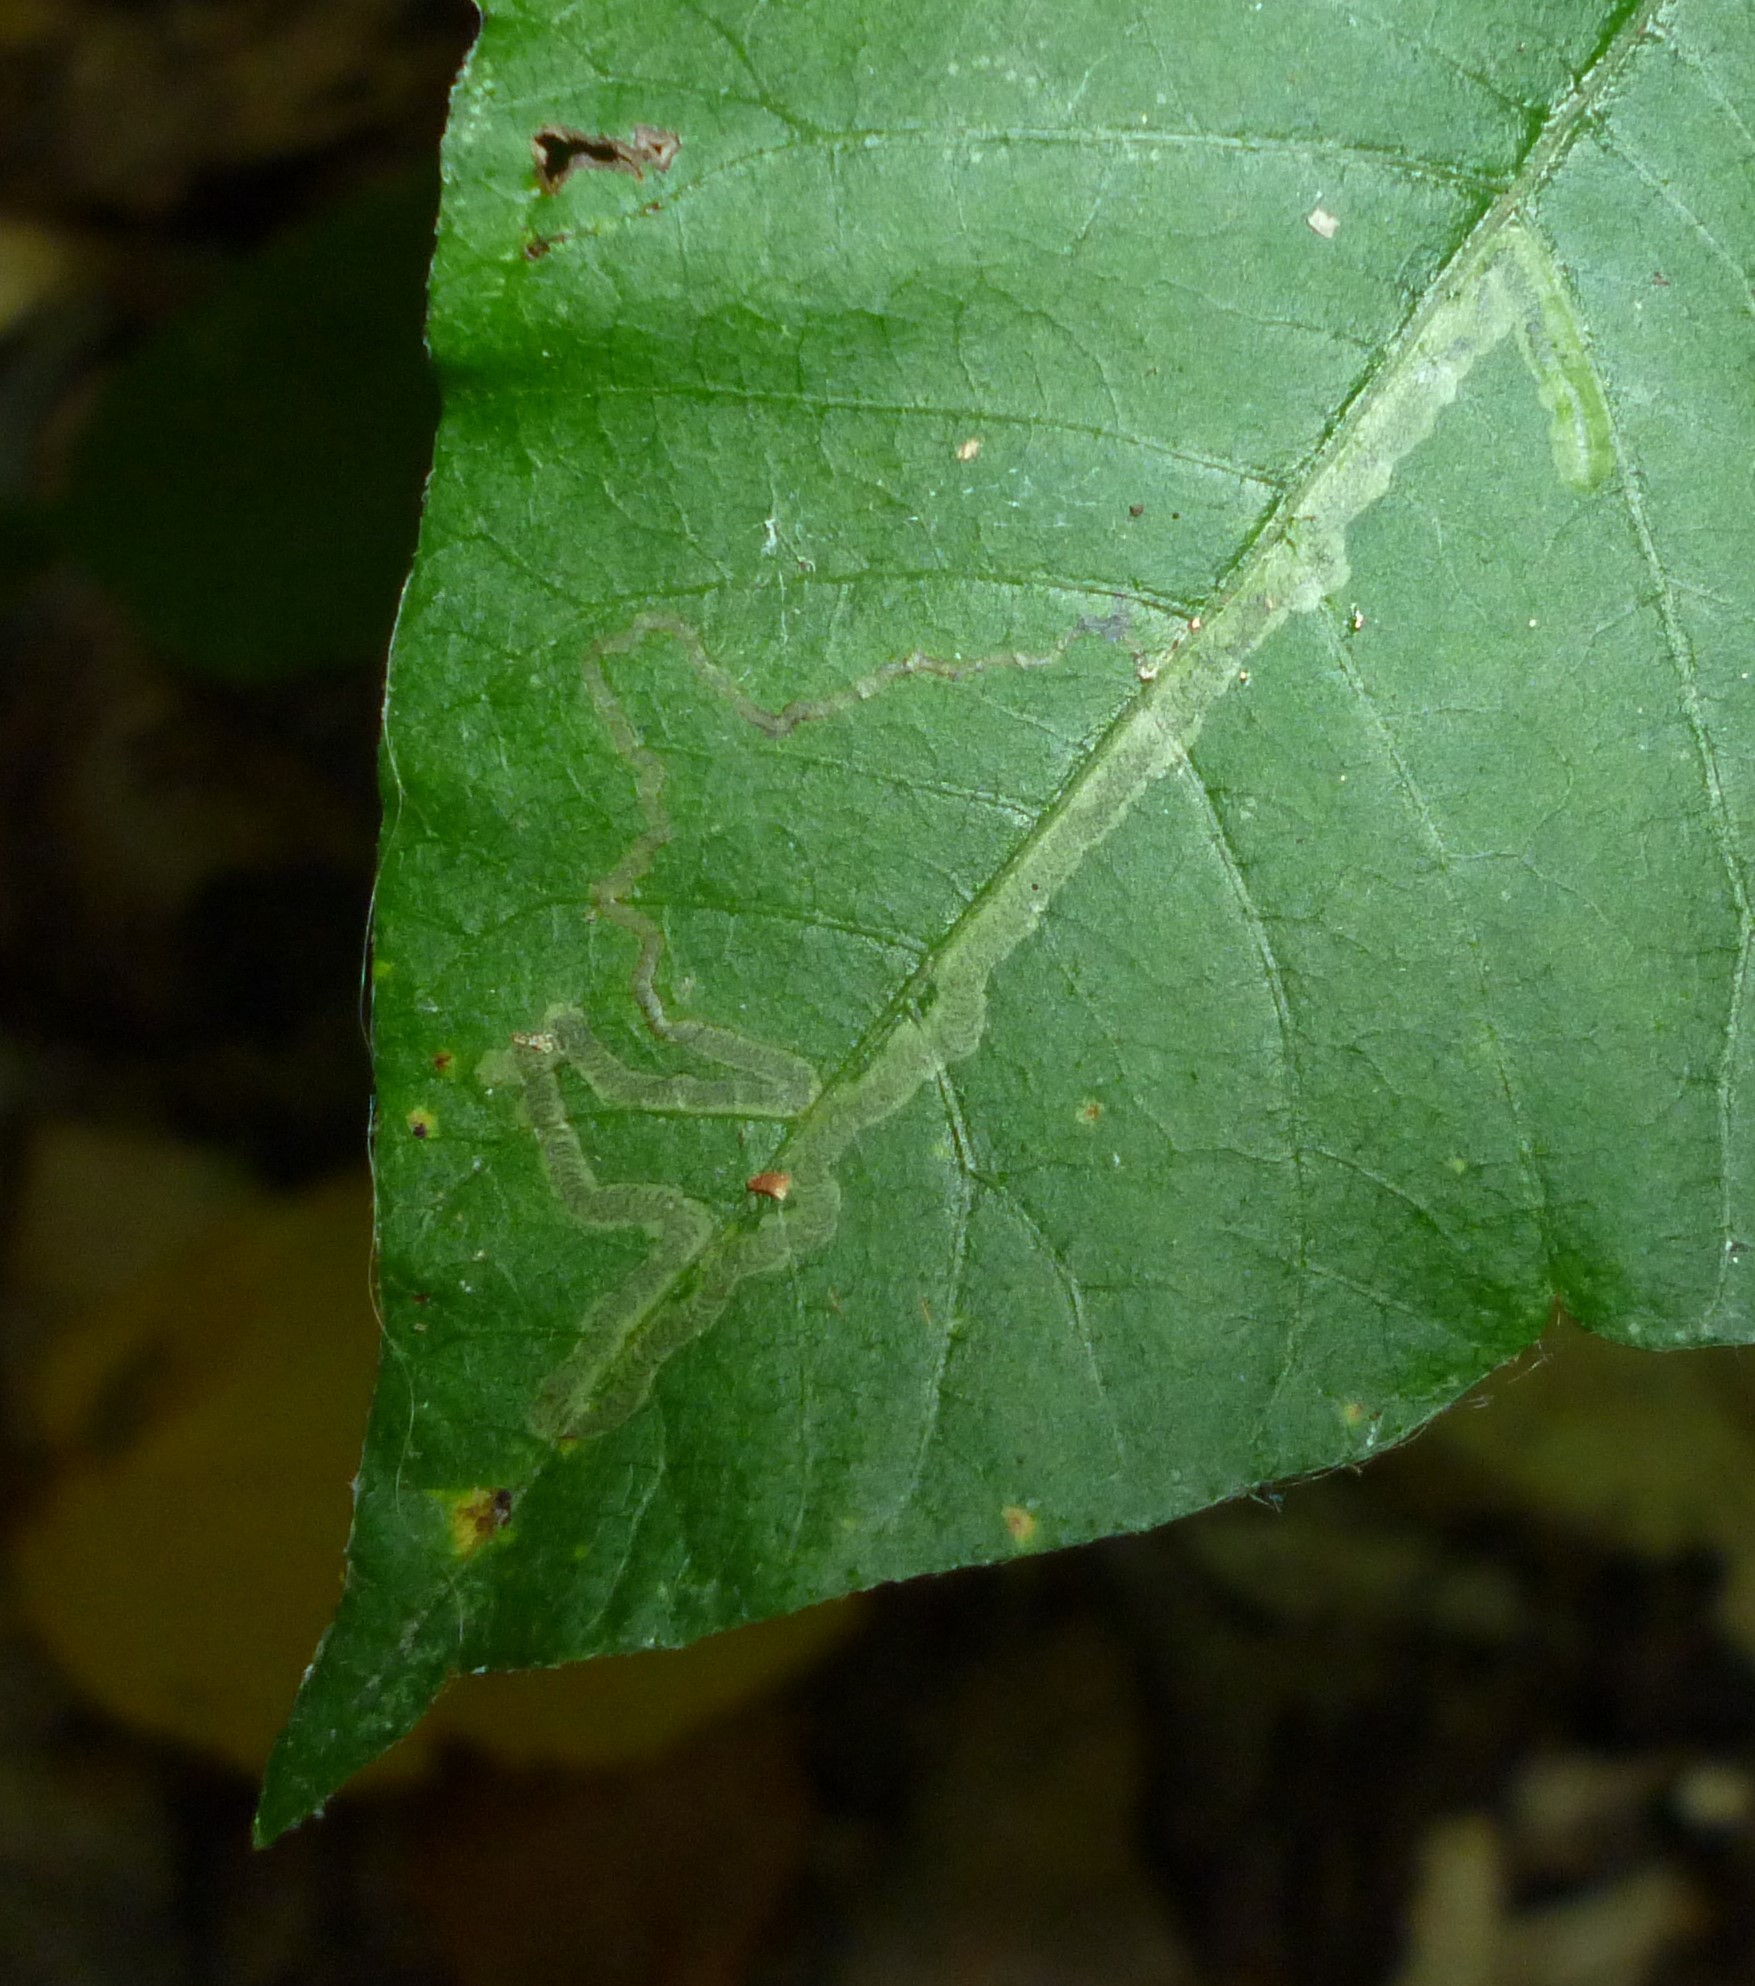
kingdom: Animalia
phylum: Arthropoda
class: Insecta
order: Lepidoptera
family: Nepticulidae
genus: Stigmella
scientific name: Stigmella rhoifoliella
